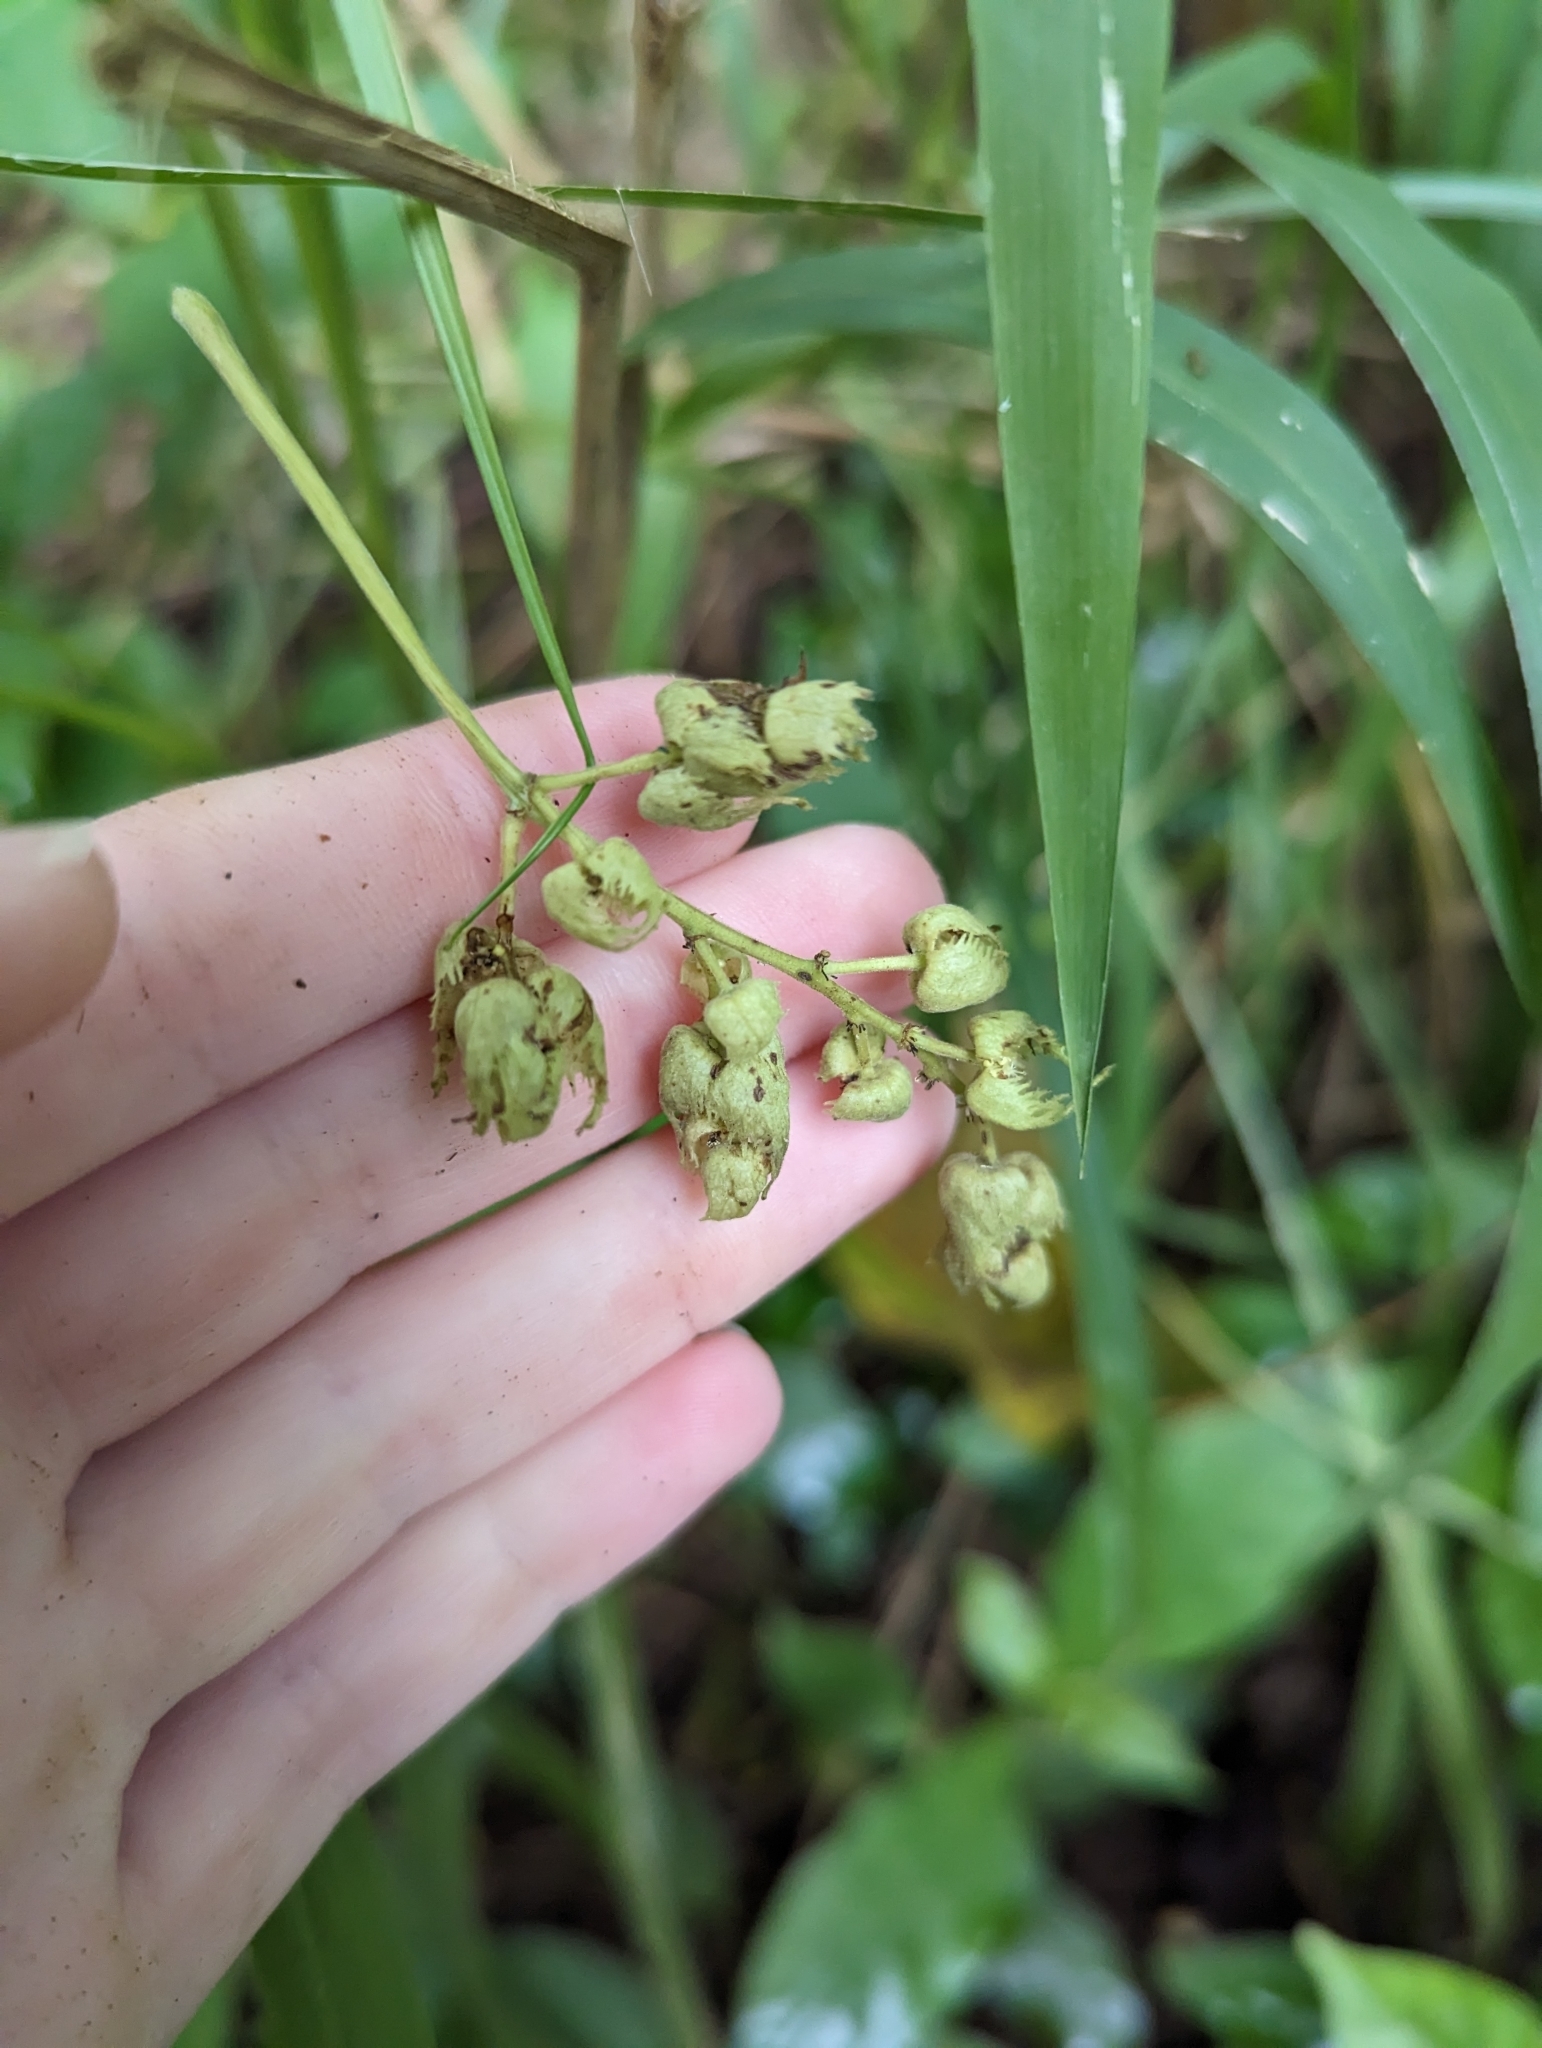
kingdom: Plantae
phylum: Tracheophyta
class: Magnoliopsida
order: Malpighiales
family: Euphorbiaceae
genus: Macaranga
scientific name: Macaranga tanarius
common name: Parasol leaf tree
